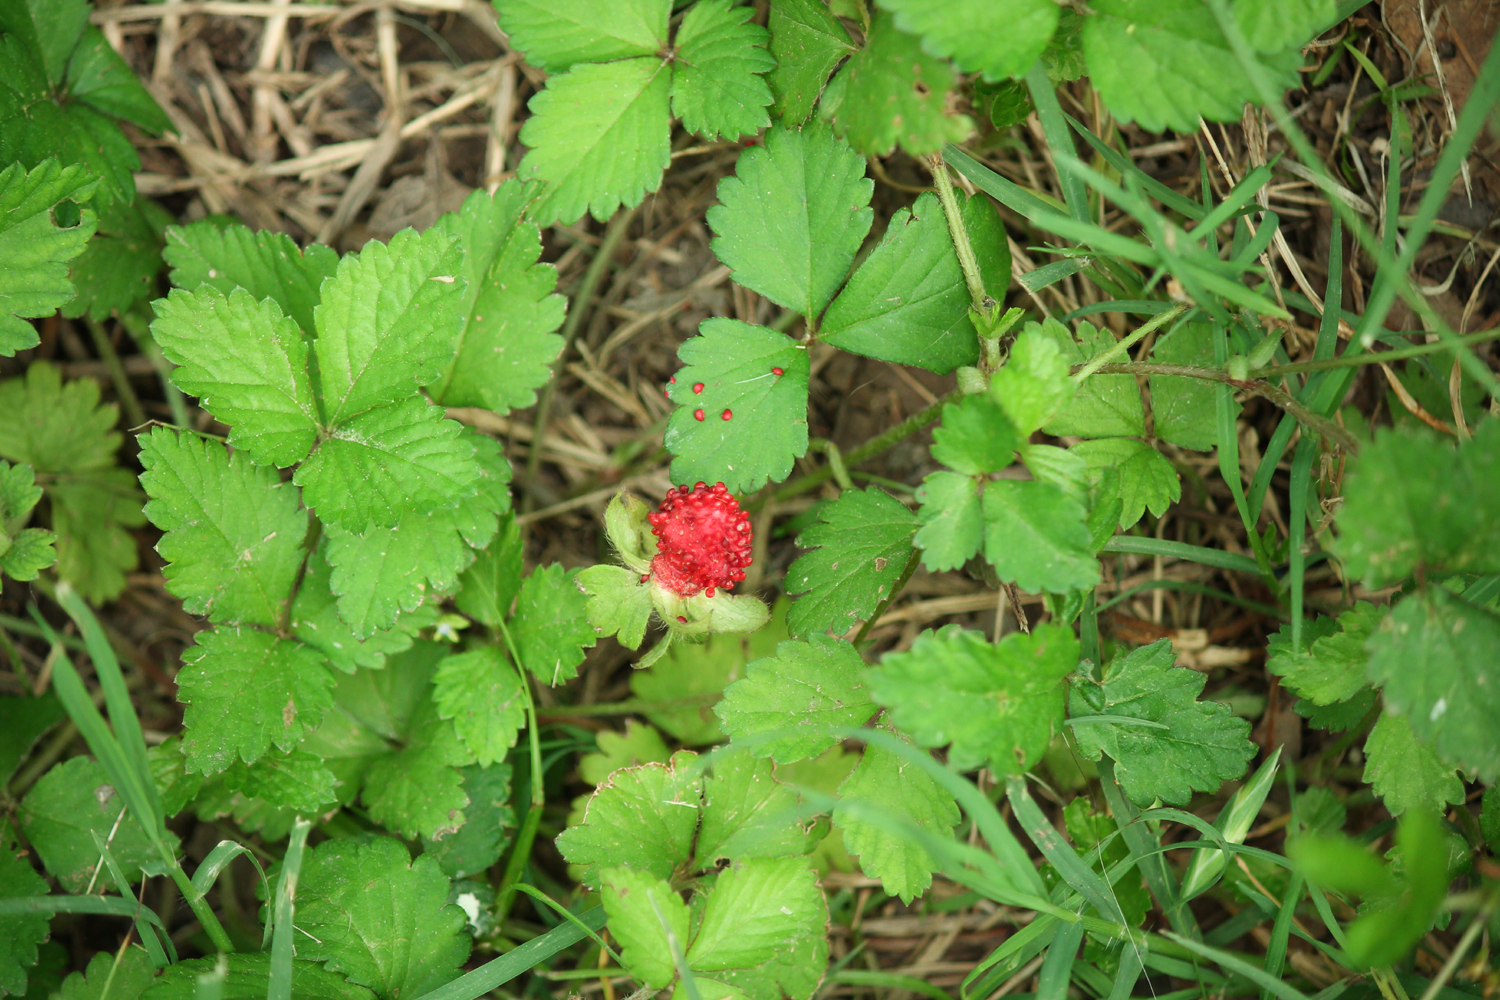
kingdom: Plantae
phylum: Tracheophyta
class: Magnoliopsida
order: Rosales
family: Rosaceae
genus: Potentilla
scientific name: Potentilla indica
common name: Yellow-flowered strawberry
